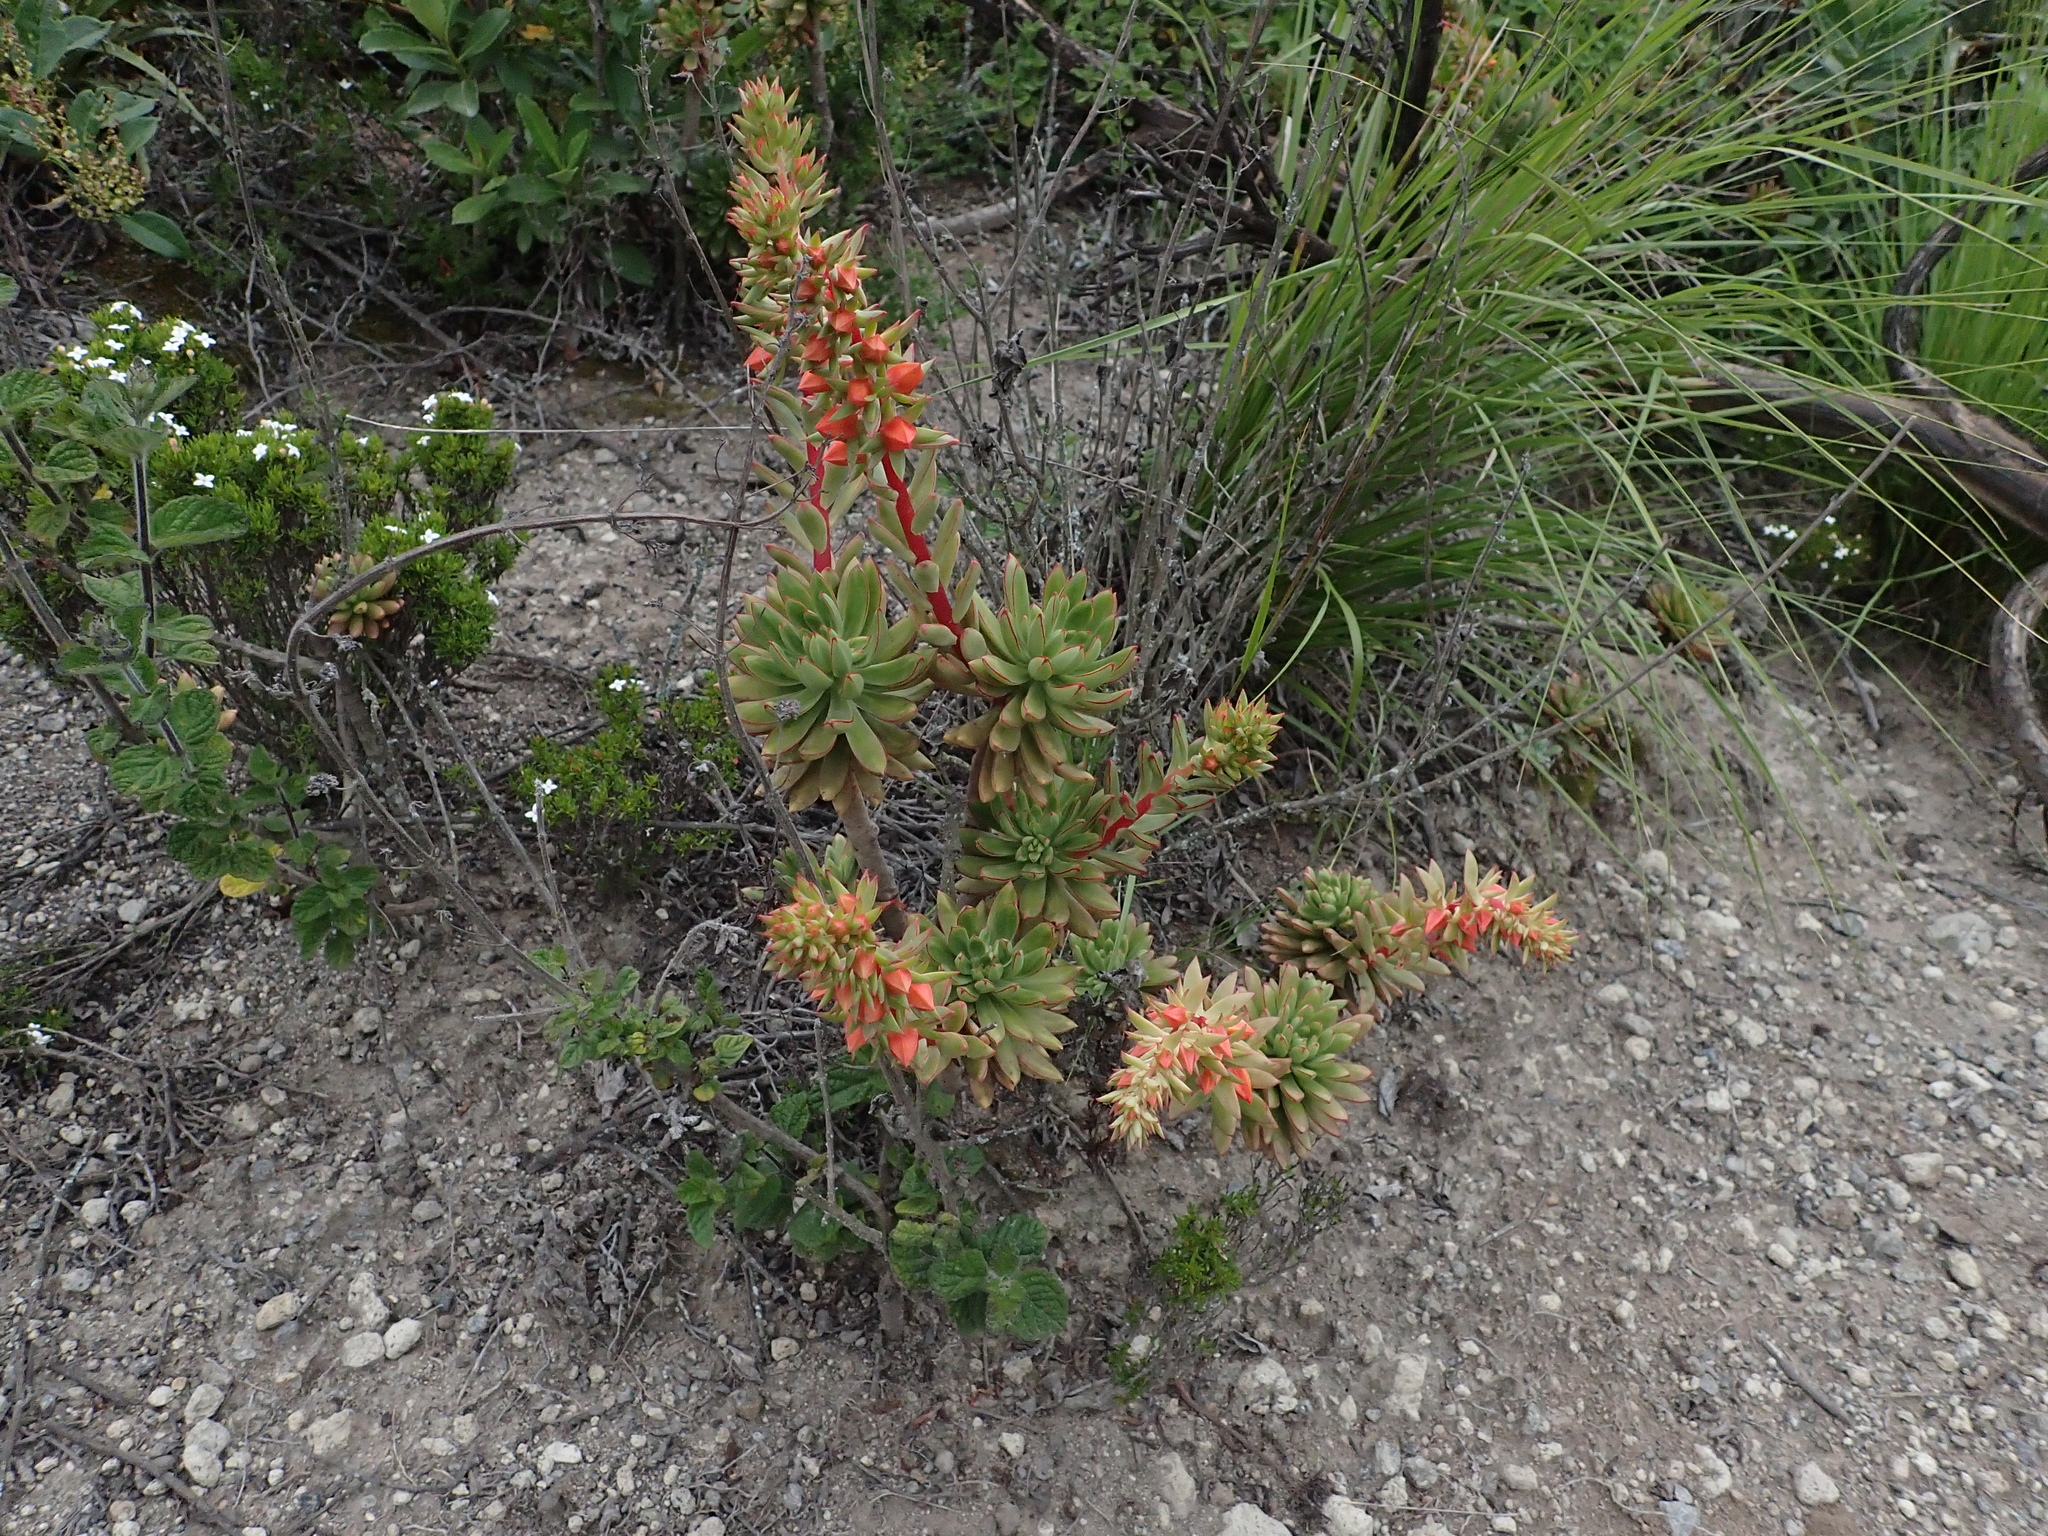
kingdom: Plantae
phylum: Tracheophyta
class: Magnoliopsida
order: Saxifragales
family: Crassulaceae
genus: Echeveria
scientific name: Echeveria quitensis
